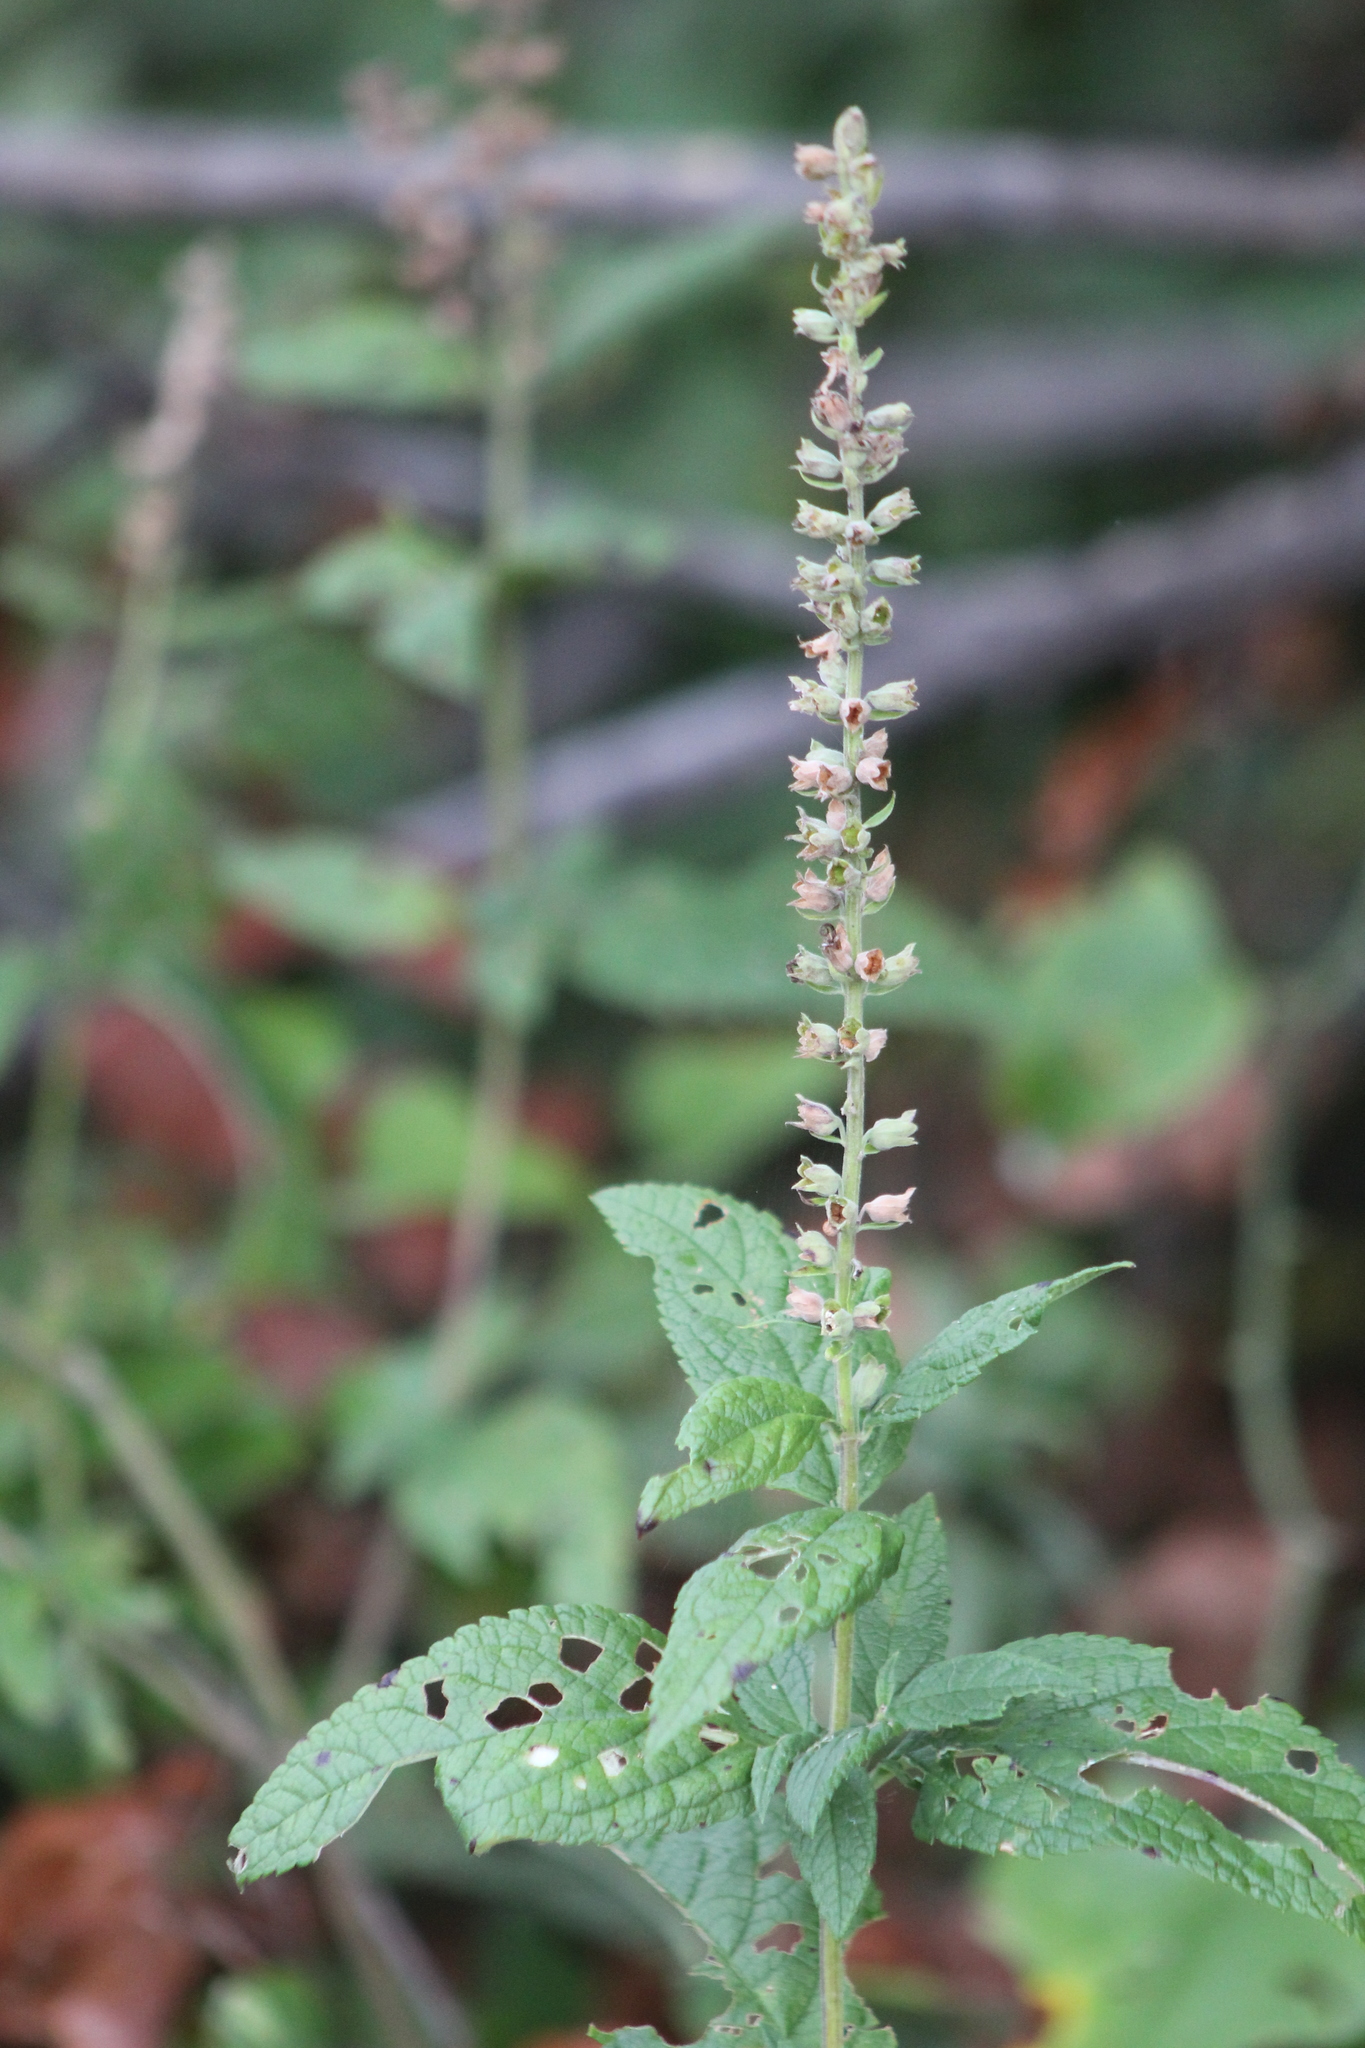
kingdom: Plantae
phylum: Tracheophyta
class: Magnoliopsida
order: Lamiales
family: Lamiaceae
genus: Teucrium
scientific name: Teucrium canadense
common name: American germander
